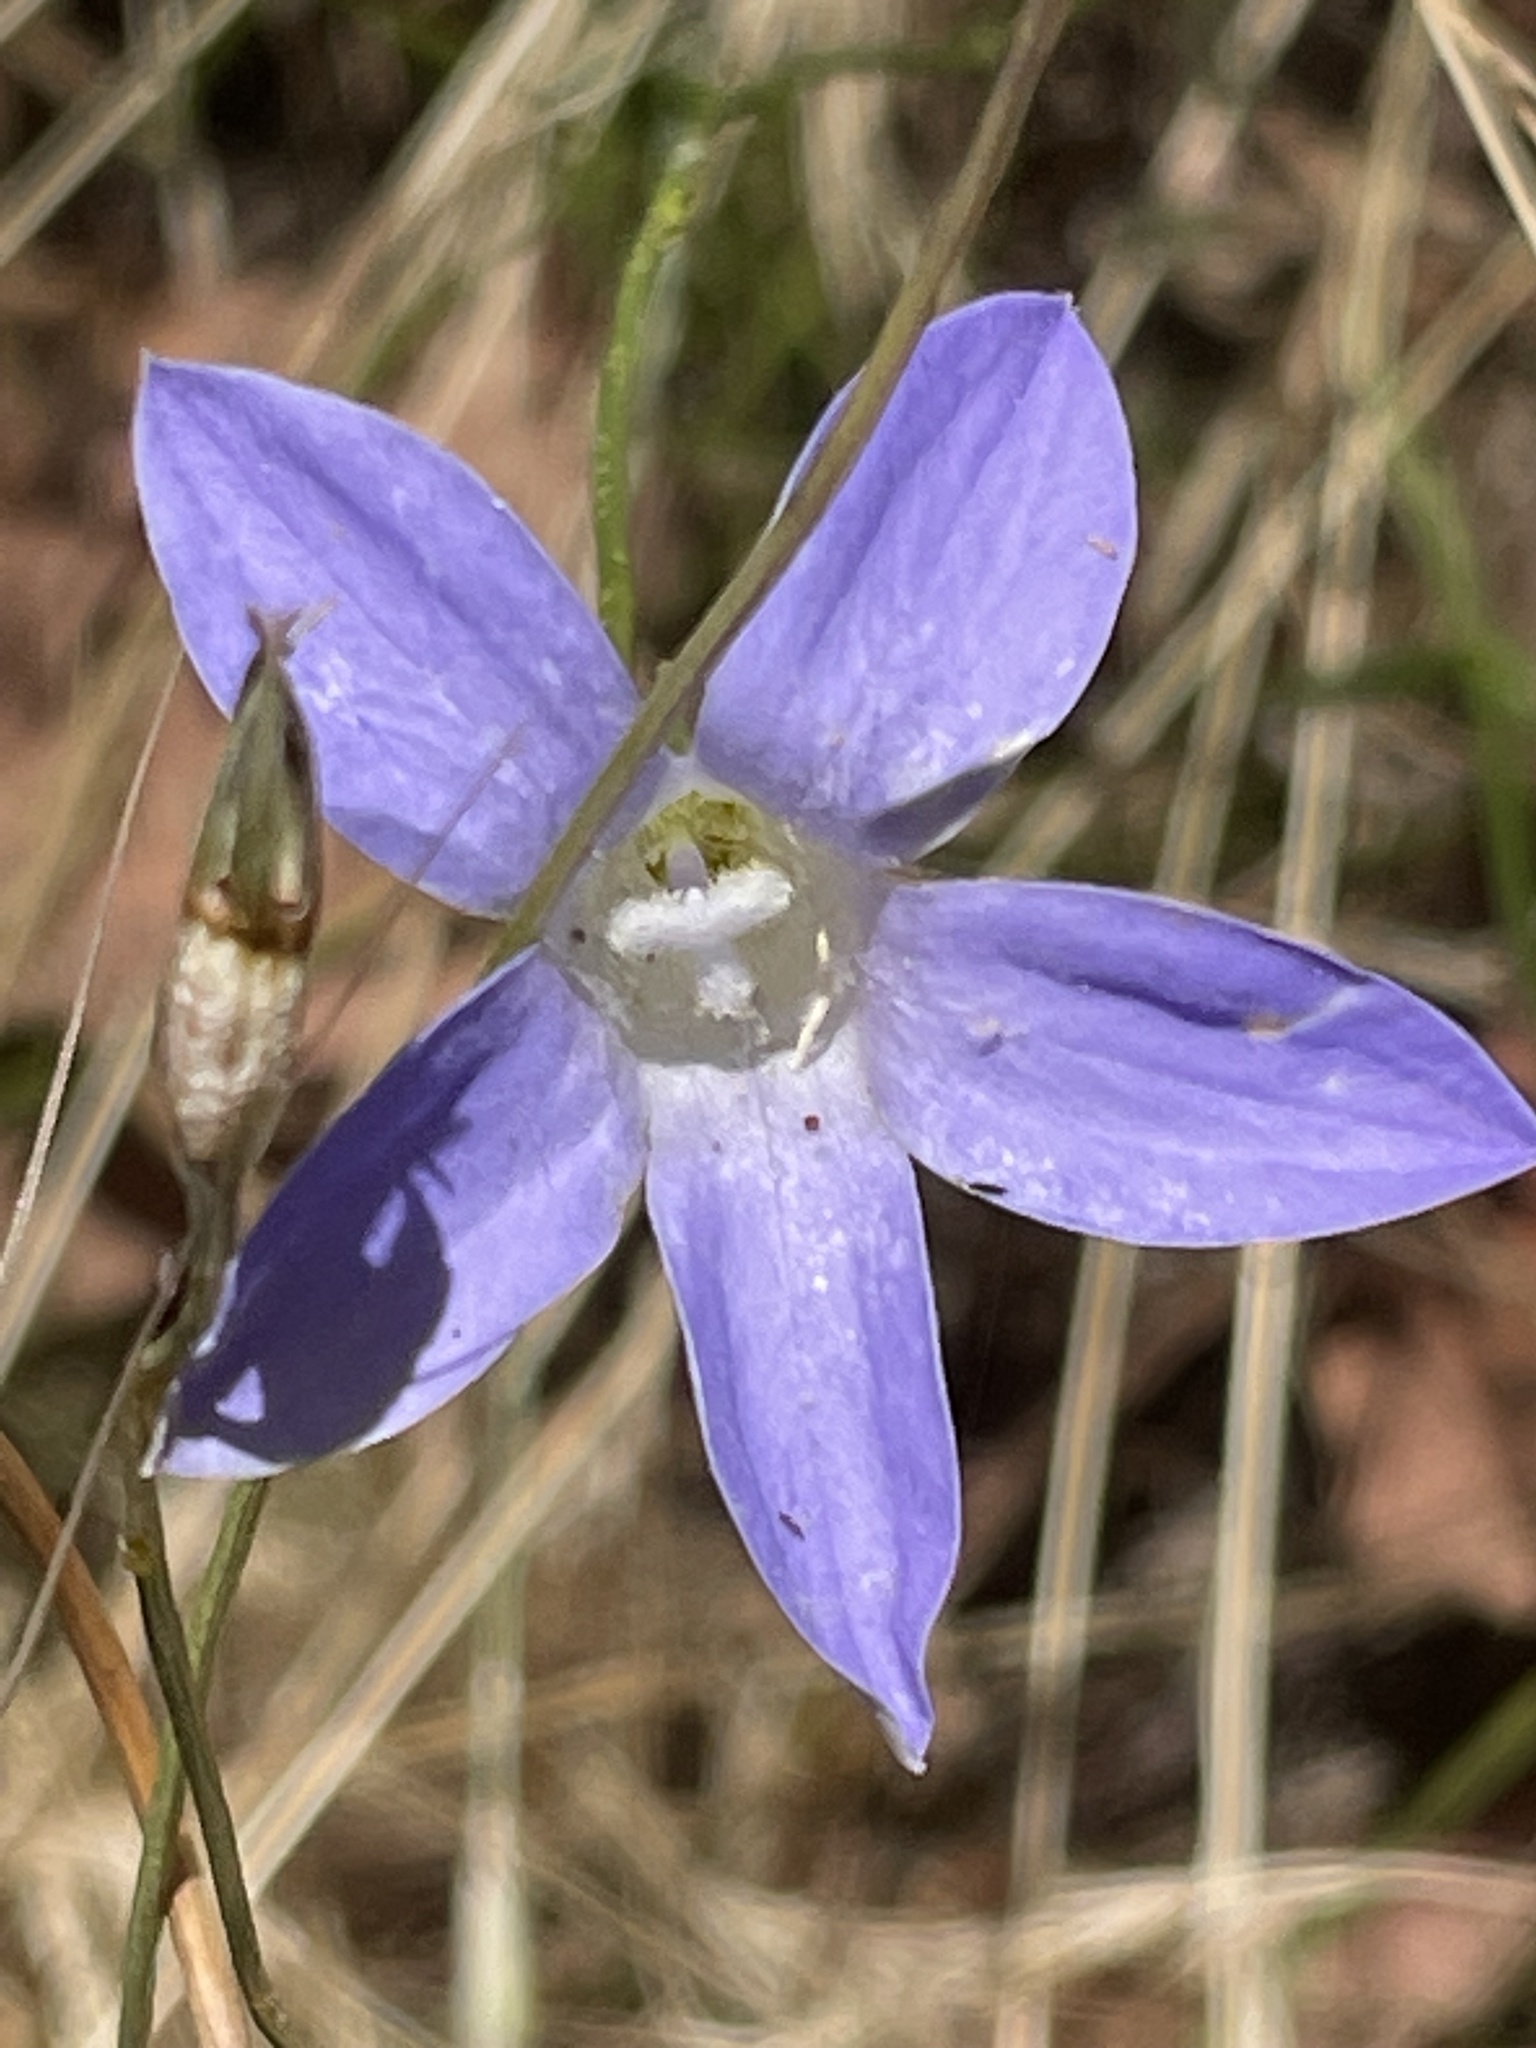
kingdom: Plantae
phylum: Tracheophyta
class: Magnoliopsida
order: Asterales
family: Campanulaceae
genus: Wahlenbergia
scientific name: Wahlenbergia
